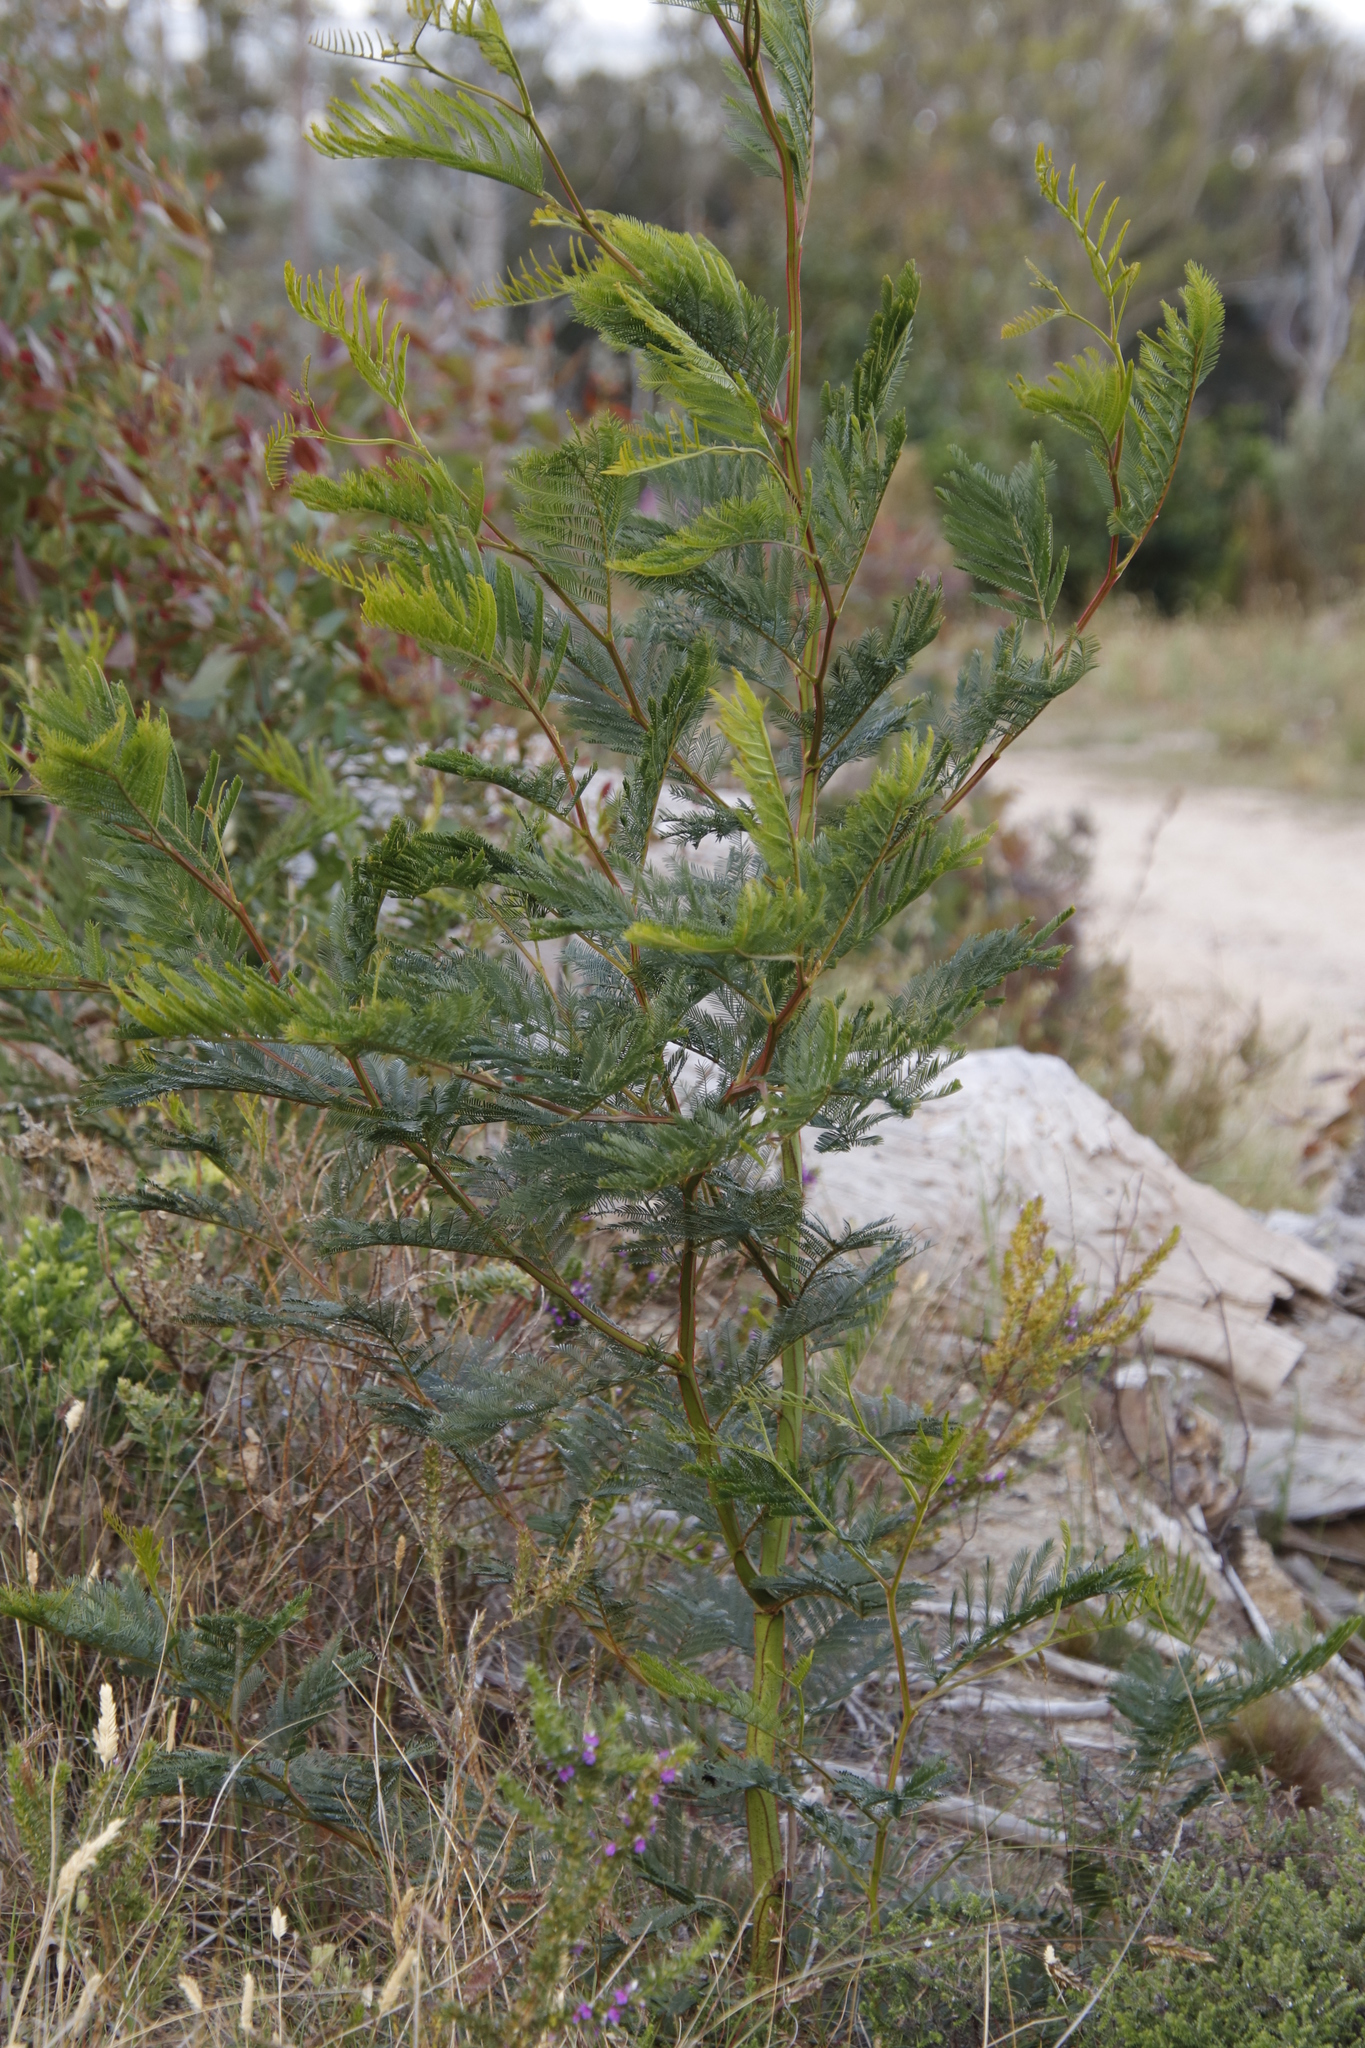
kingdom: Plantae
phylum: Tracheophyta
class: Magnoliopsida
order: Fabales
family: Fabaceae
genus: Acacia
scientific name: Acacia decurrens
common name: Green wattle
